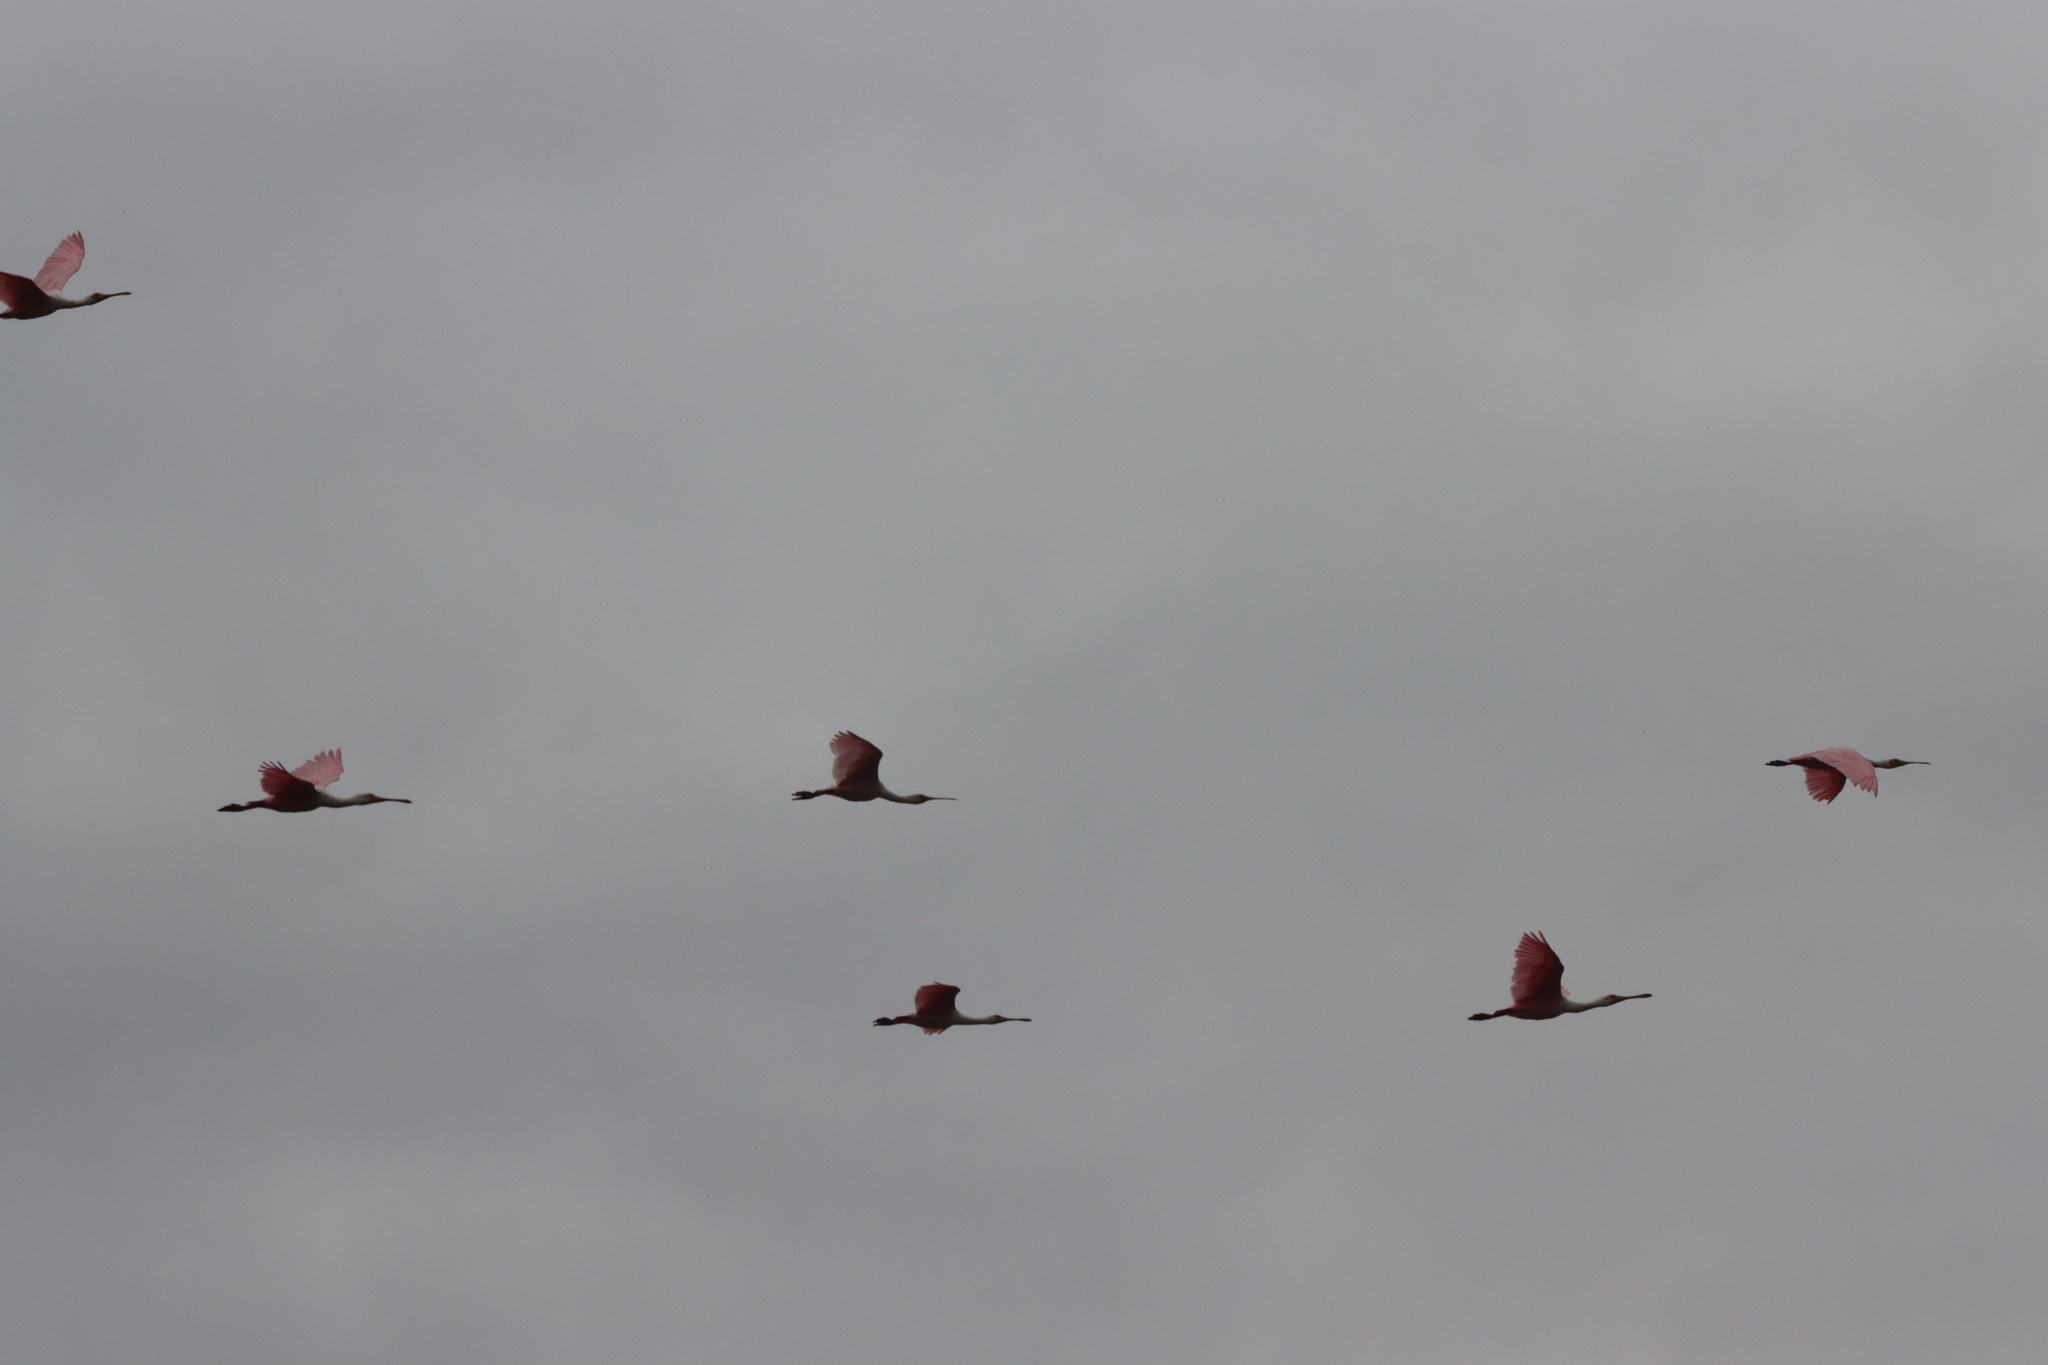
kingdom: Animalia
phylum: Chordata
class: Aves
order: Pelecaniformes
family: Threskiornithidae
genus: Platalea
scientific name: Platalea ajaja
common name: Roseate spoonbill
